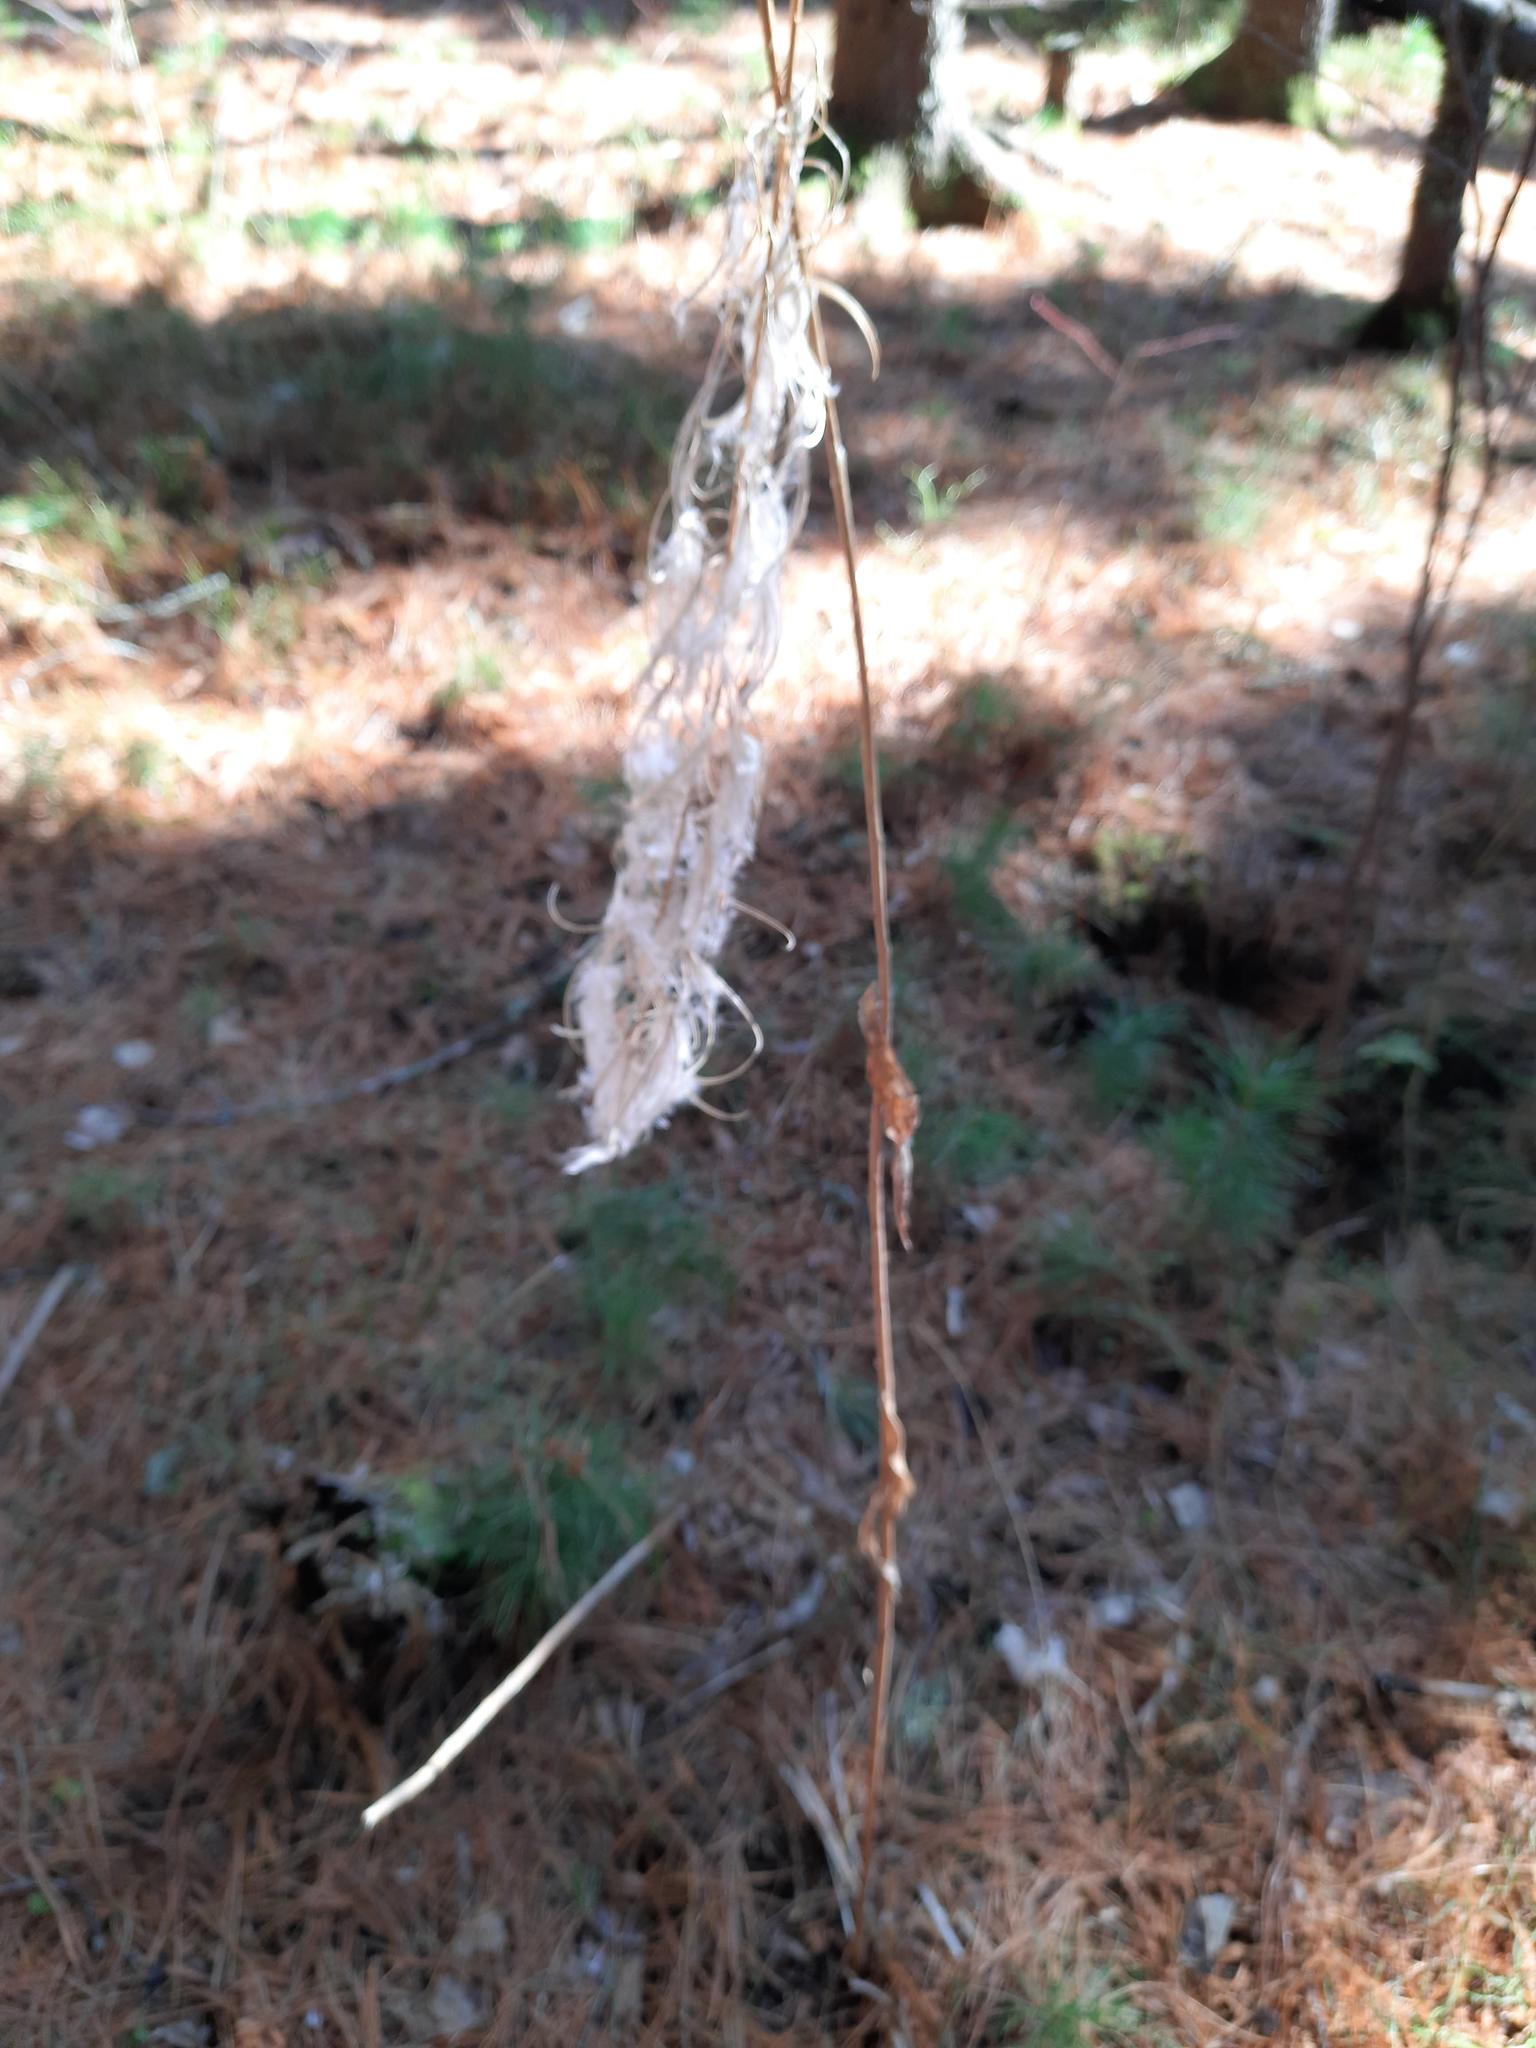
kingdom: Plantae
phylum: Tracheophyta
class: Magnoliopsida
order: Myrtales
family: Onagraceae
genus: Chamaenerion
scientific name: Chamaenerion angustifolium
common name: Fireweed
